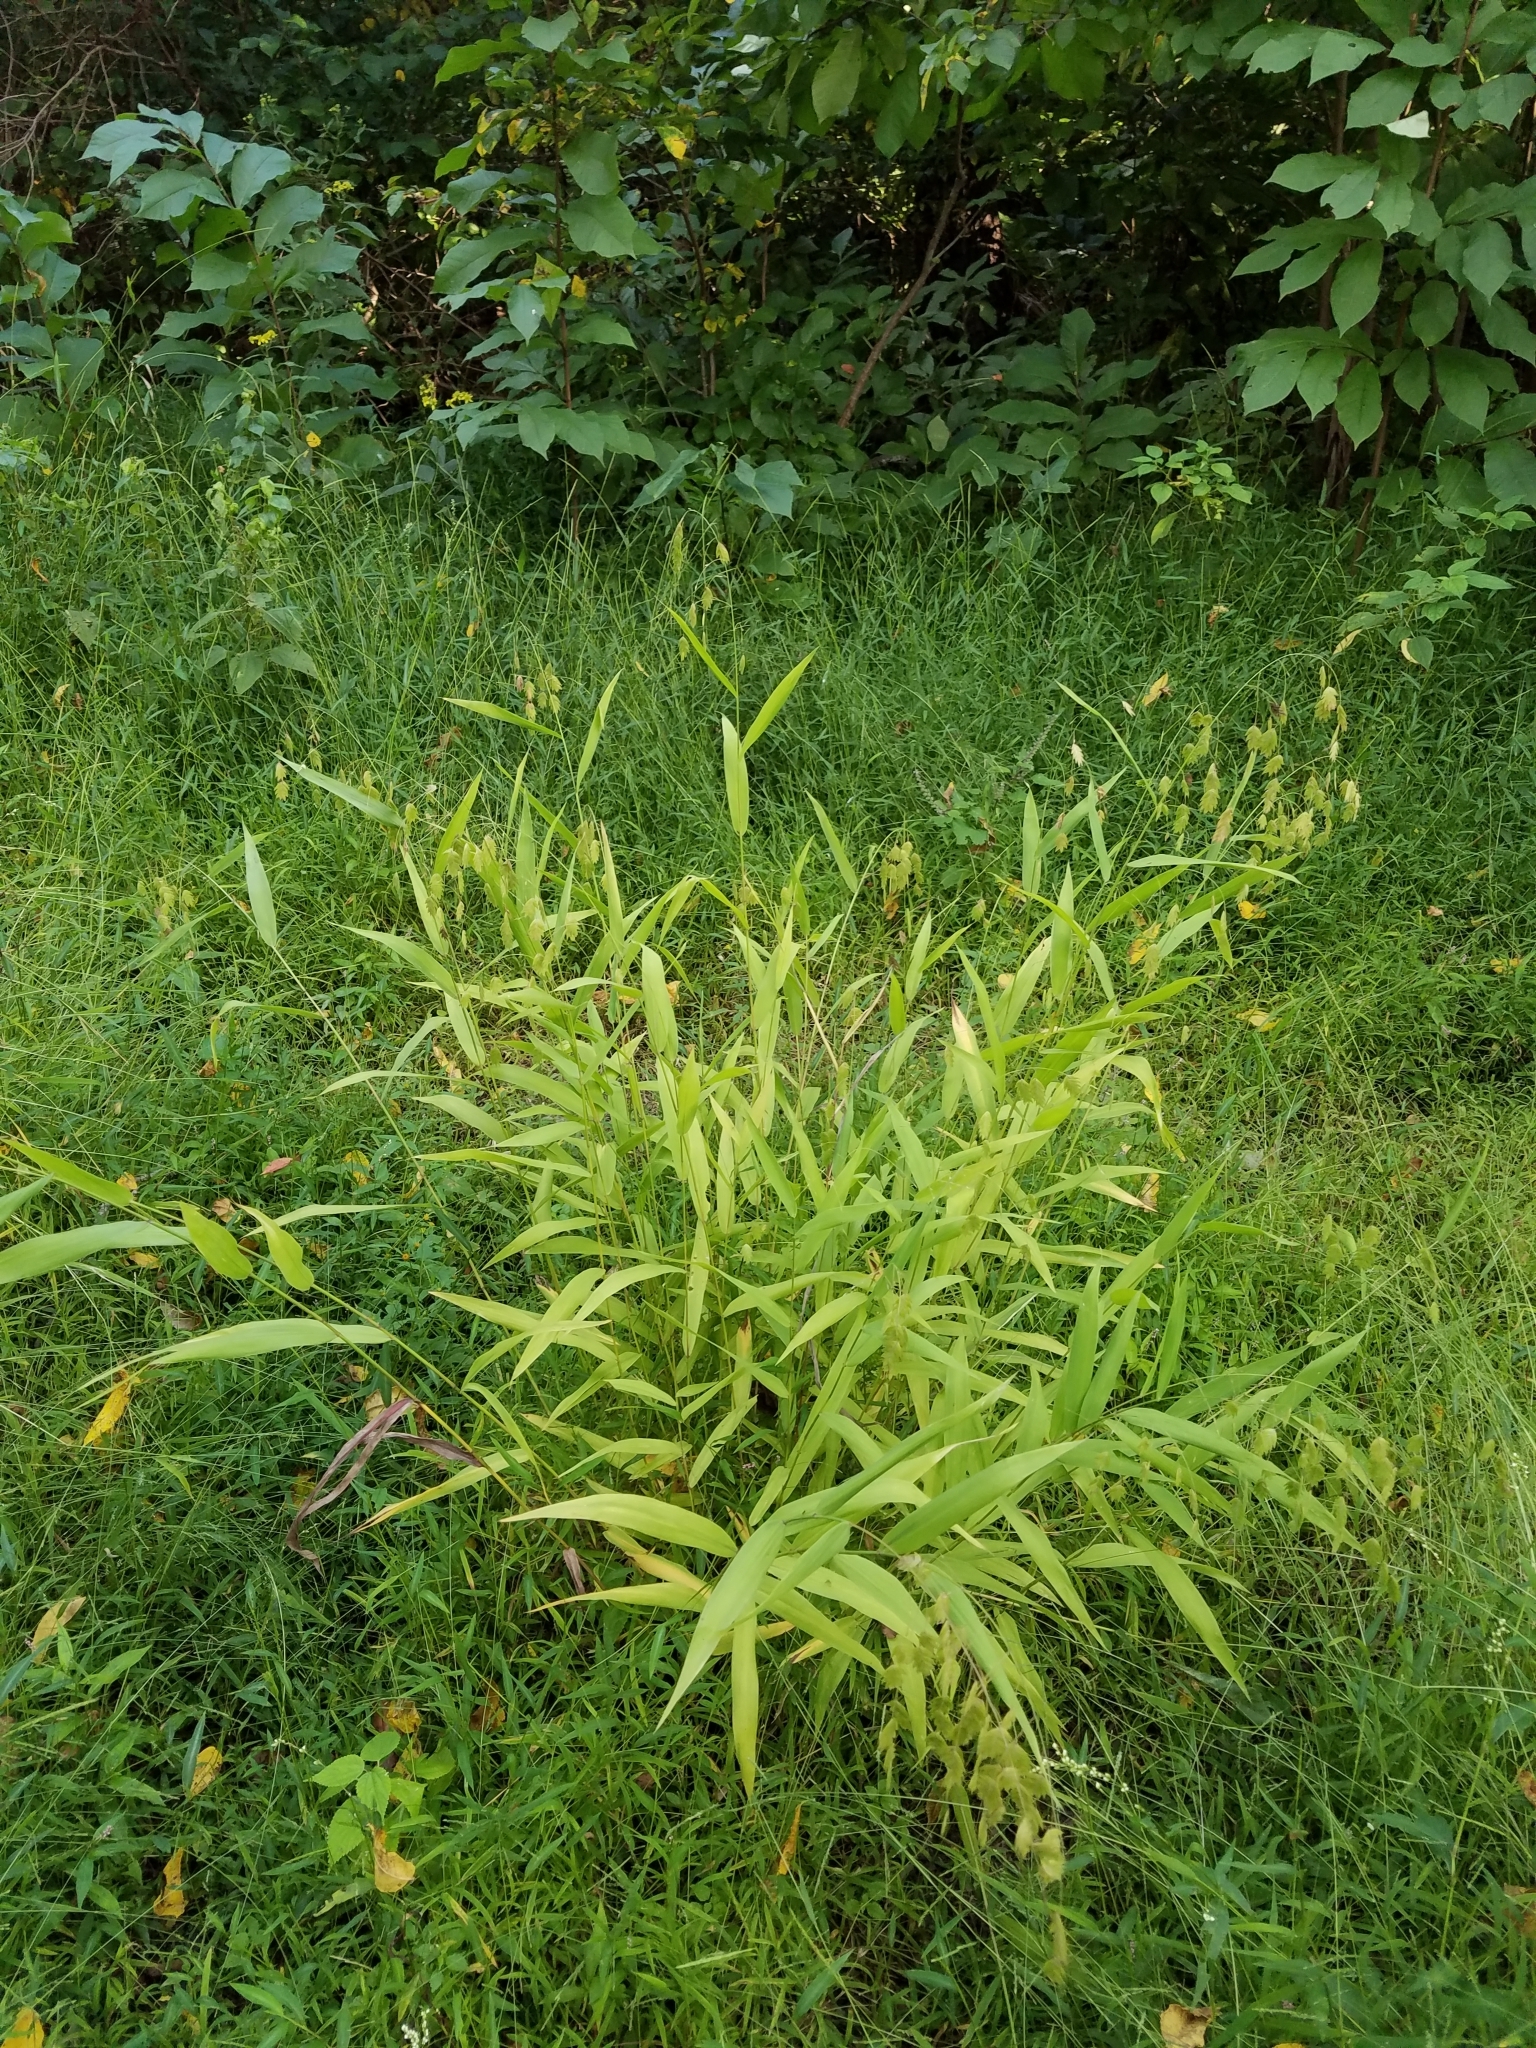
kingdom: Plantae
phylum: Tracheophyta
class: Liliopsida
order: Poales
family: Poaceae
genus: Chasmanthium
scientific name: Chasmanthium latifolium
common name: Broad-leaved chasmanthium
